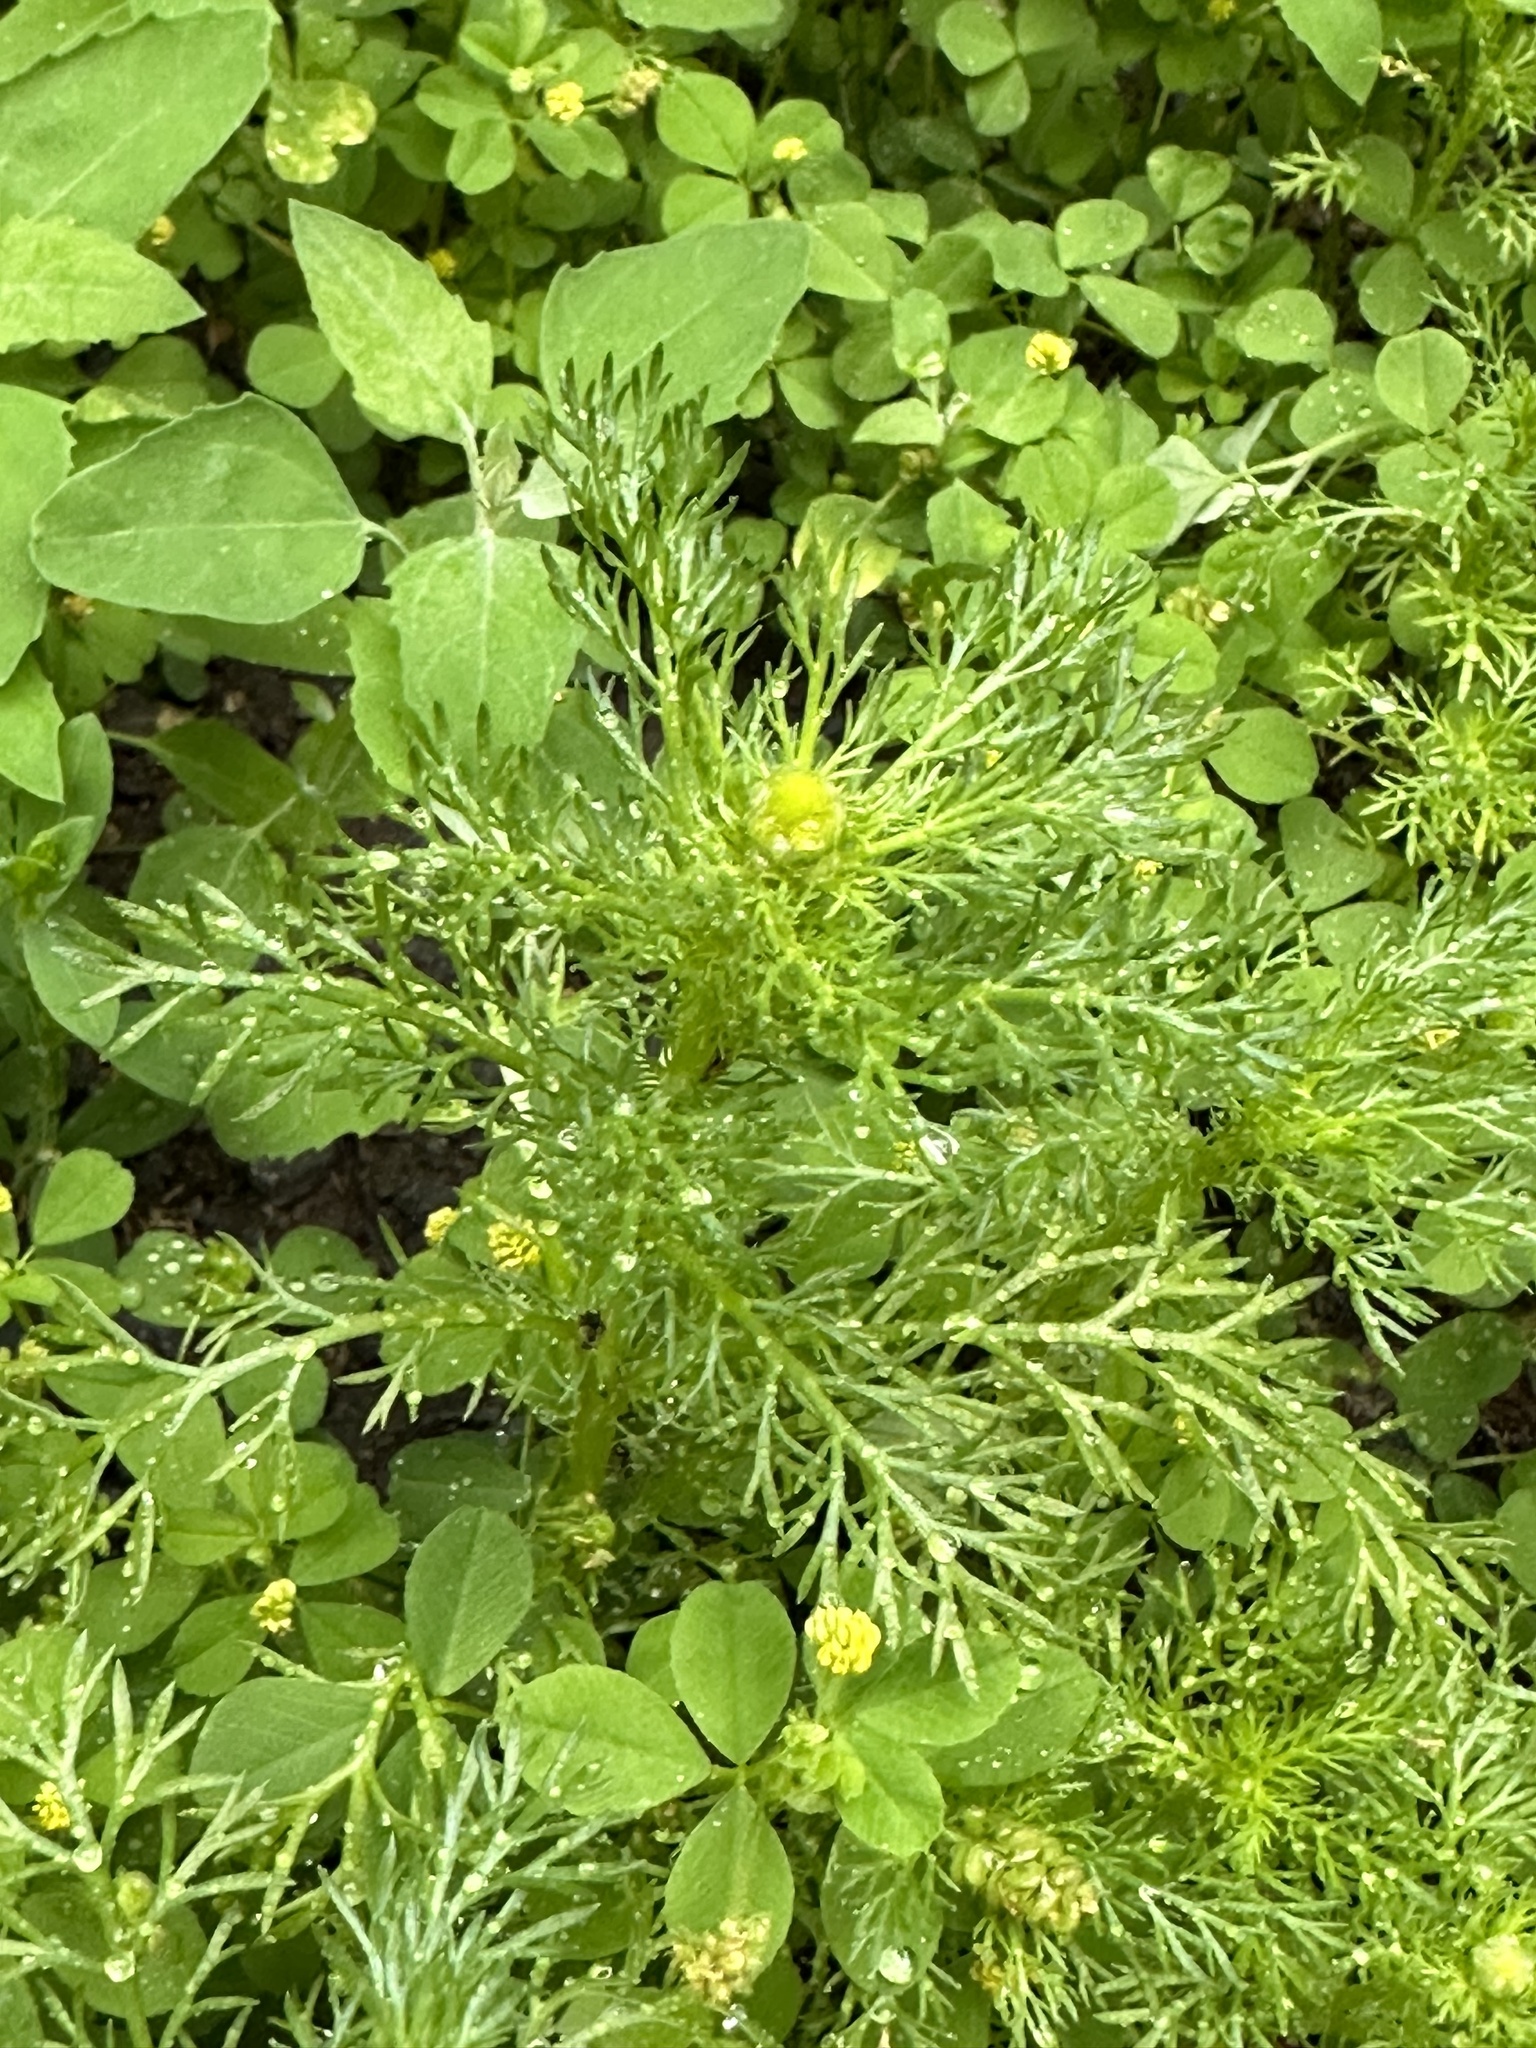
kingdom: Plantae
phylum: Tracheophyta
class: Magnoliopsida
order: Asterales
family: Asteraceae
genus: Matricaria
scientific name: Matricaria discoidea
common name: Disc mayweed
